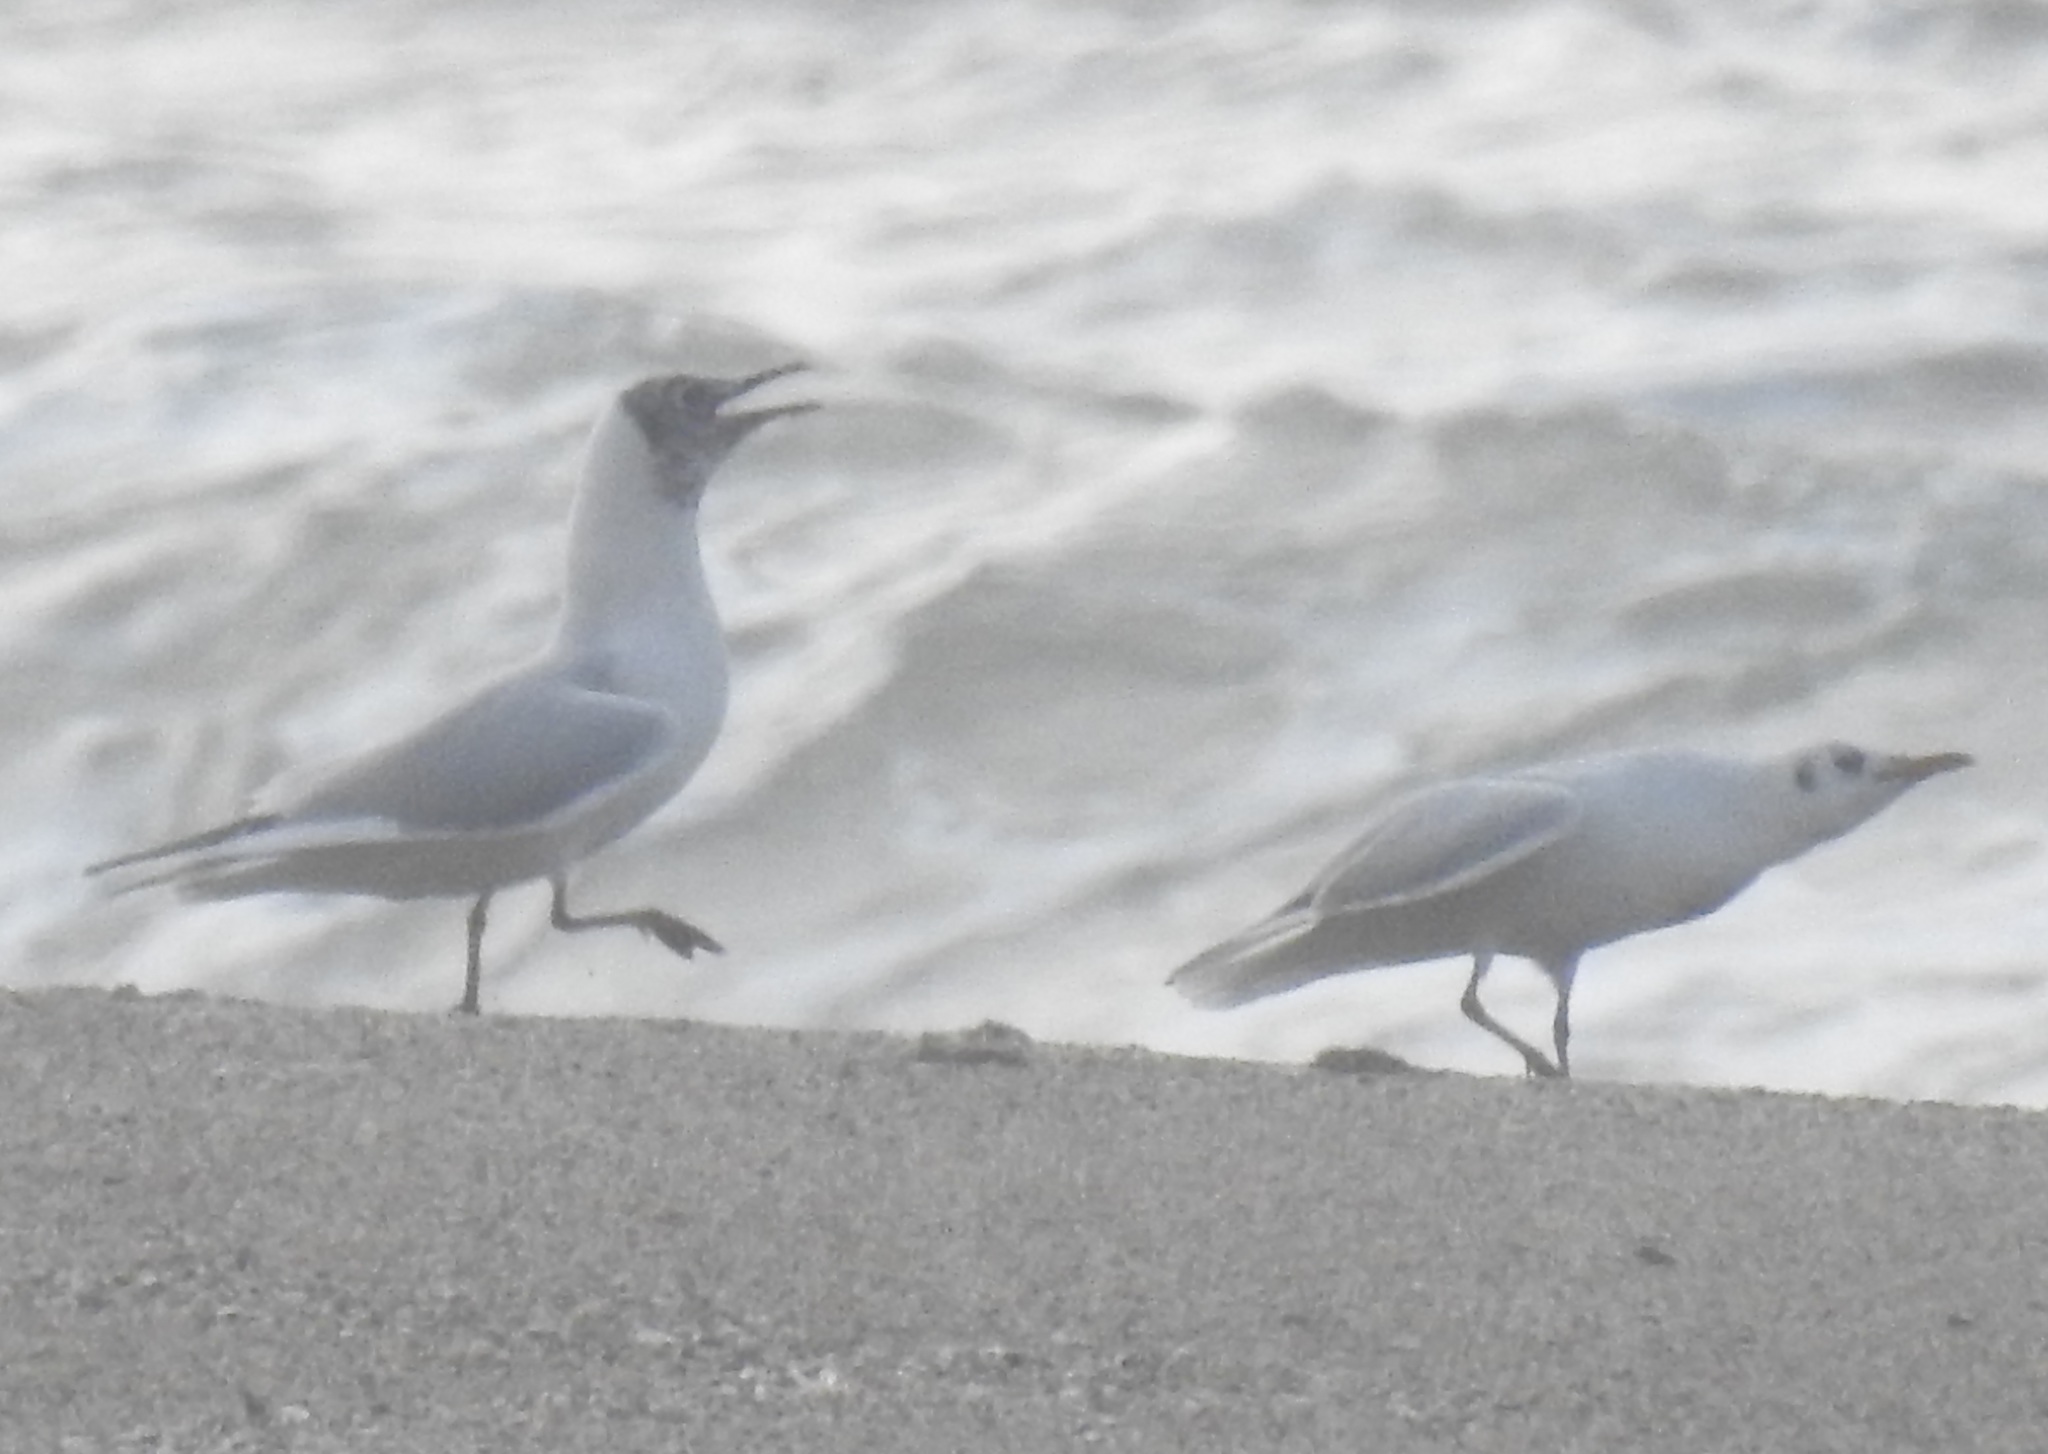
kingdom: Animalia
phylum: Chordata
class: Aves
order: Charadriiformes
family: Laridae
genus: Chroicocephalus
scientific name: Chroicocephalus ridibundus
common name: Black-headed gull
